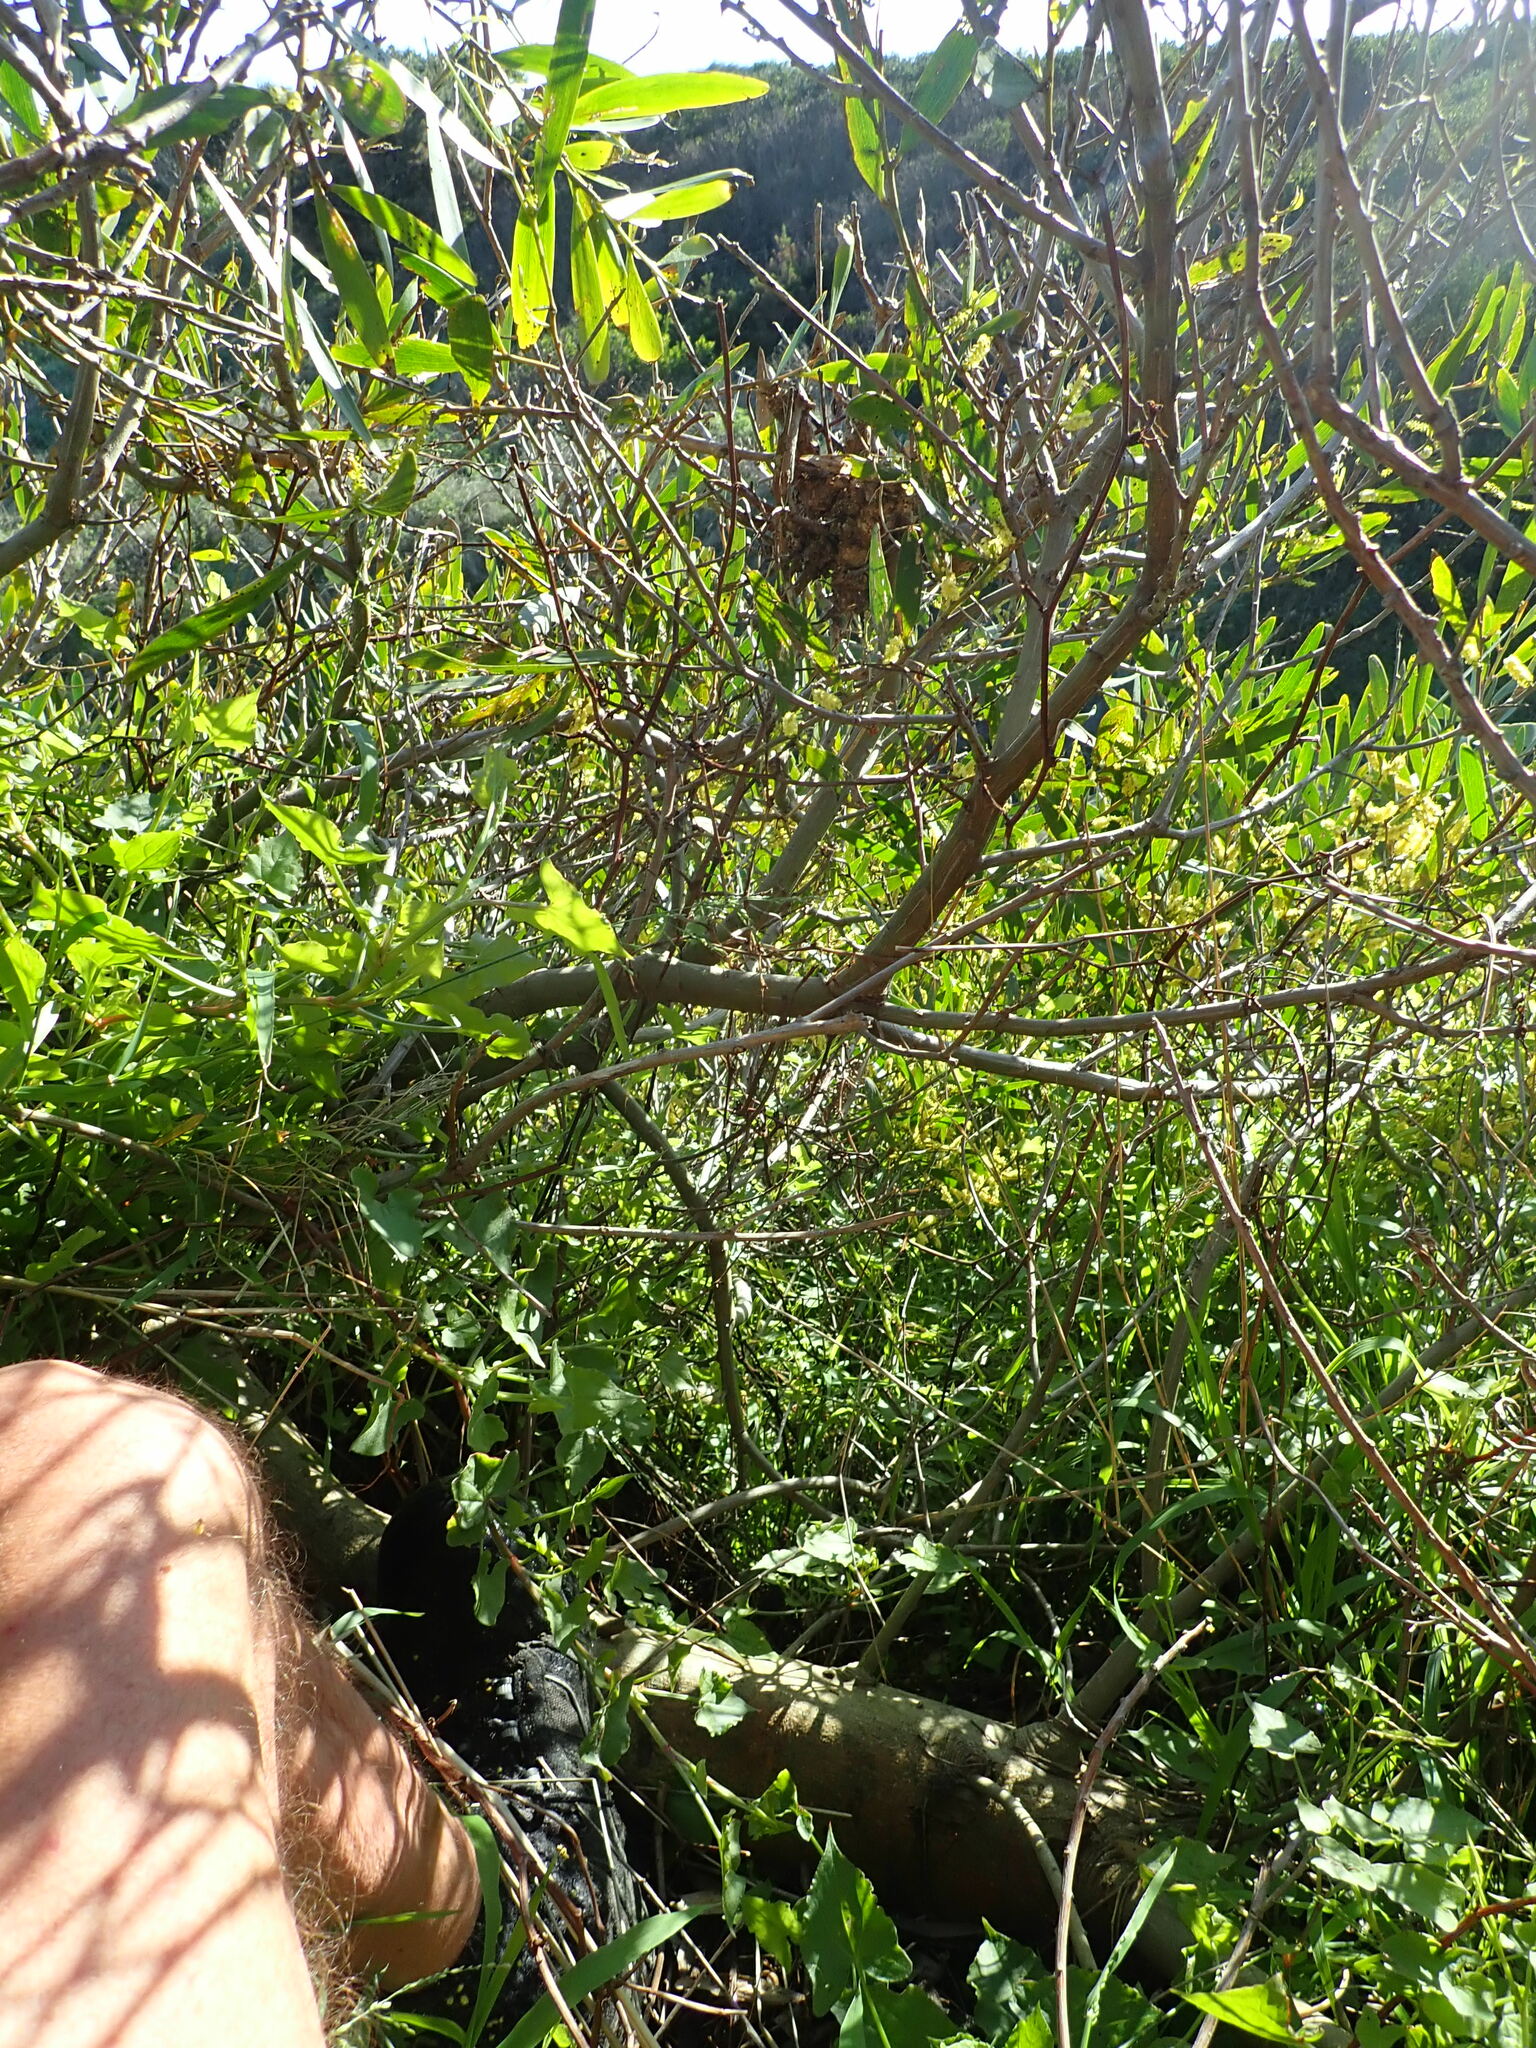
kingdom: Plantae
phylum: Tracheophyta
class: Magnoliopsida
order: Fabales
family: Fabaceae
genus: Acacia
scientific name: Acacia longifolia
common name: Sydney golden wattle
